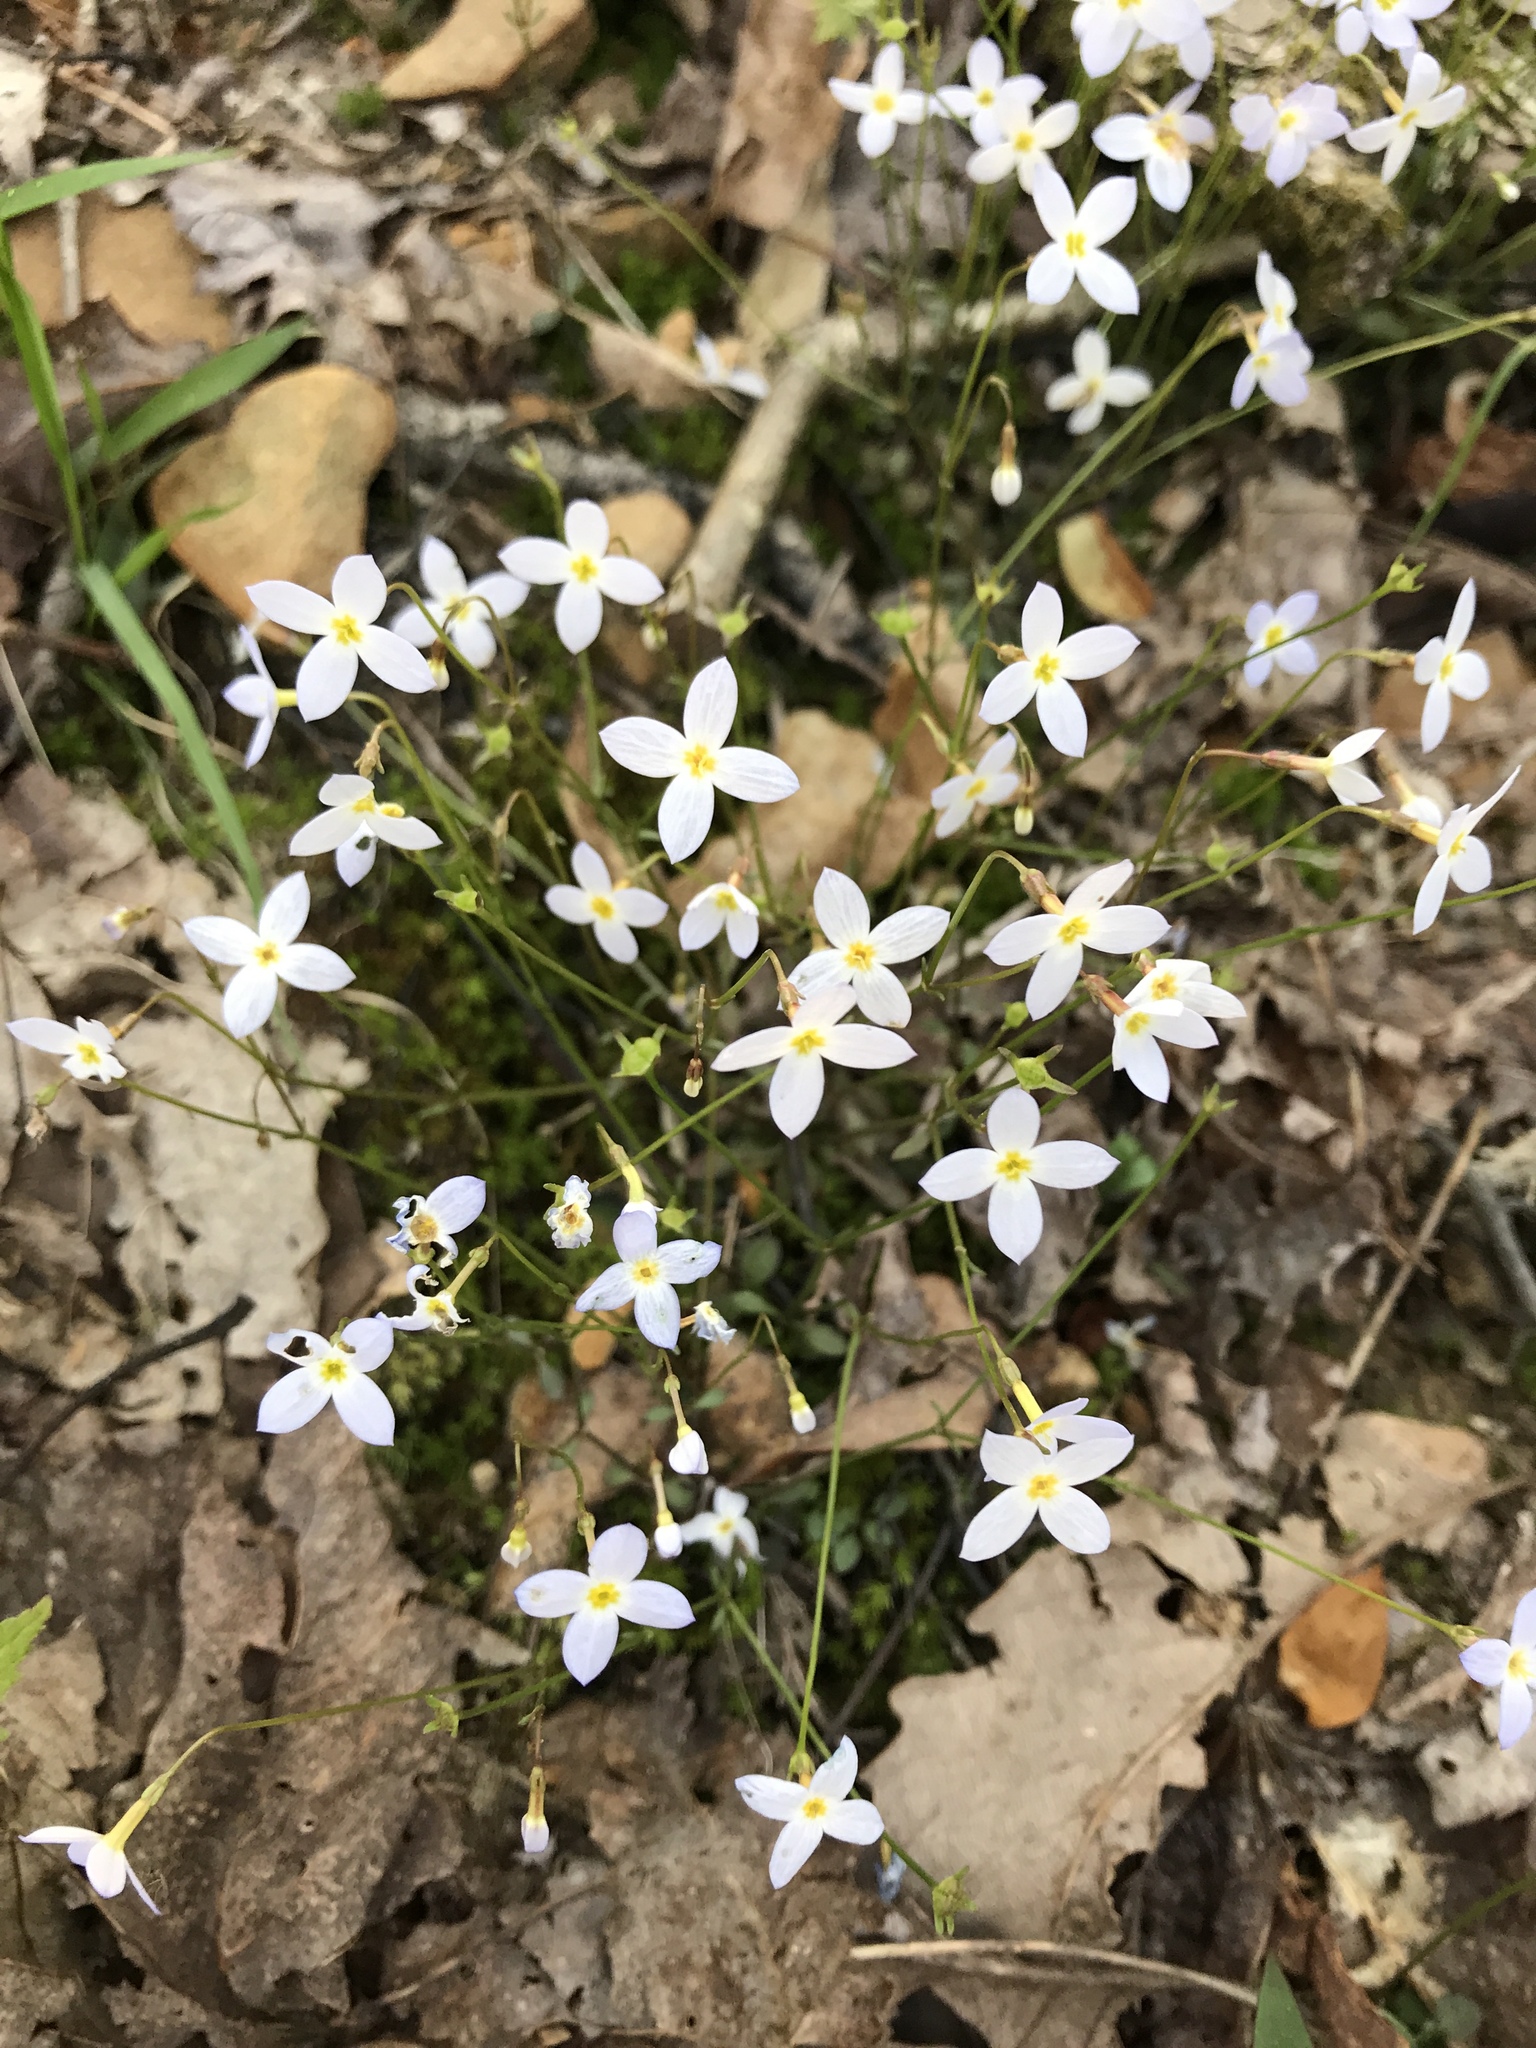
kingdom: Plantae
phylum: Tracheophyta
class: Magnoliopsida
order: Gentianales
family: Rubiaceae
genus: Houstonia
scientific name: Houstonia caerulea
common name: Bluets
